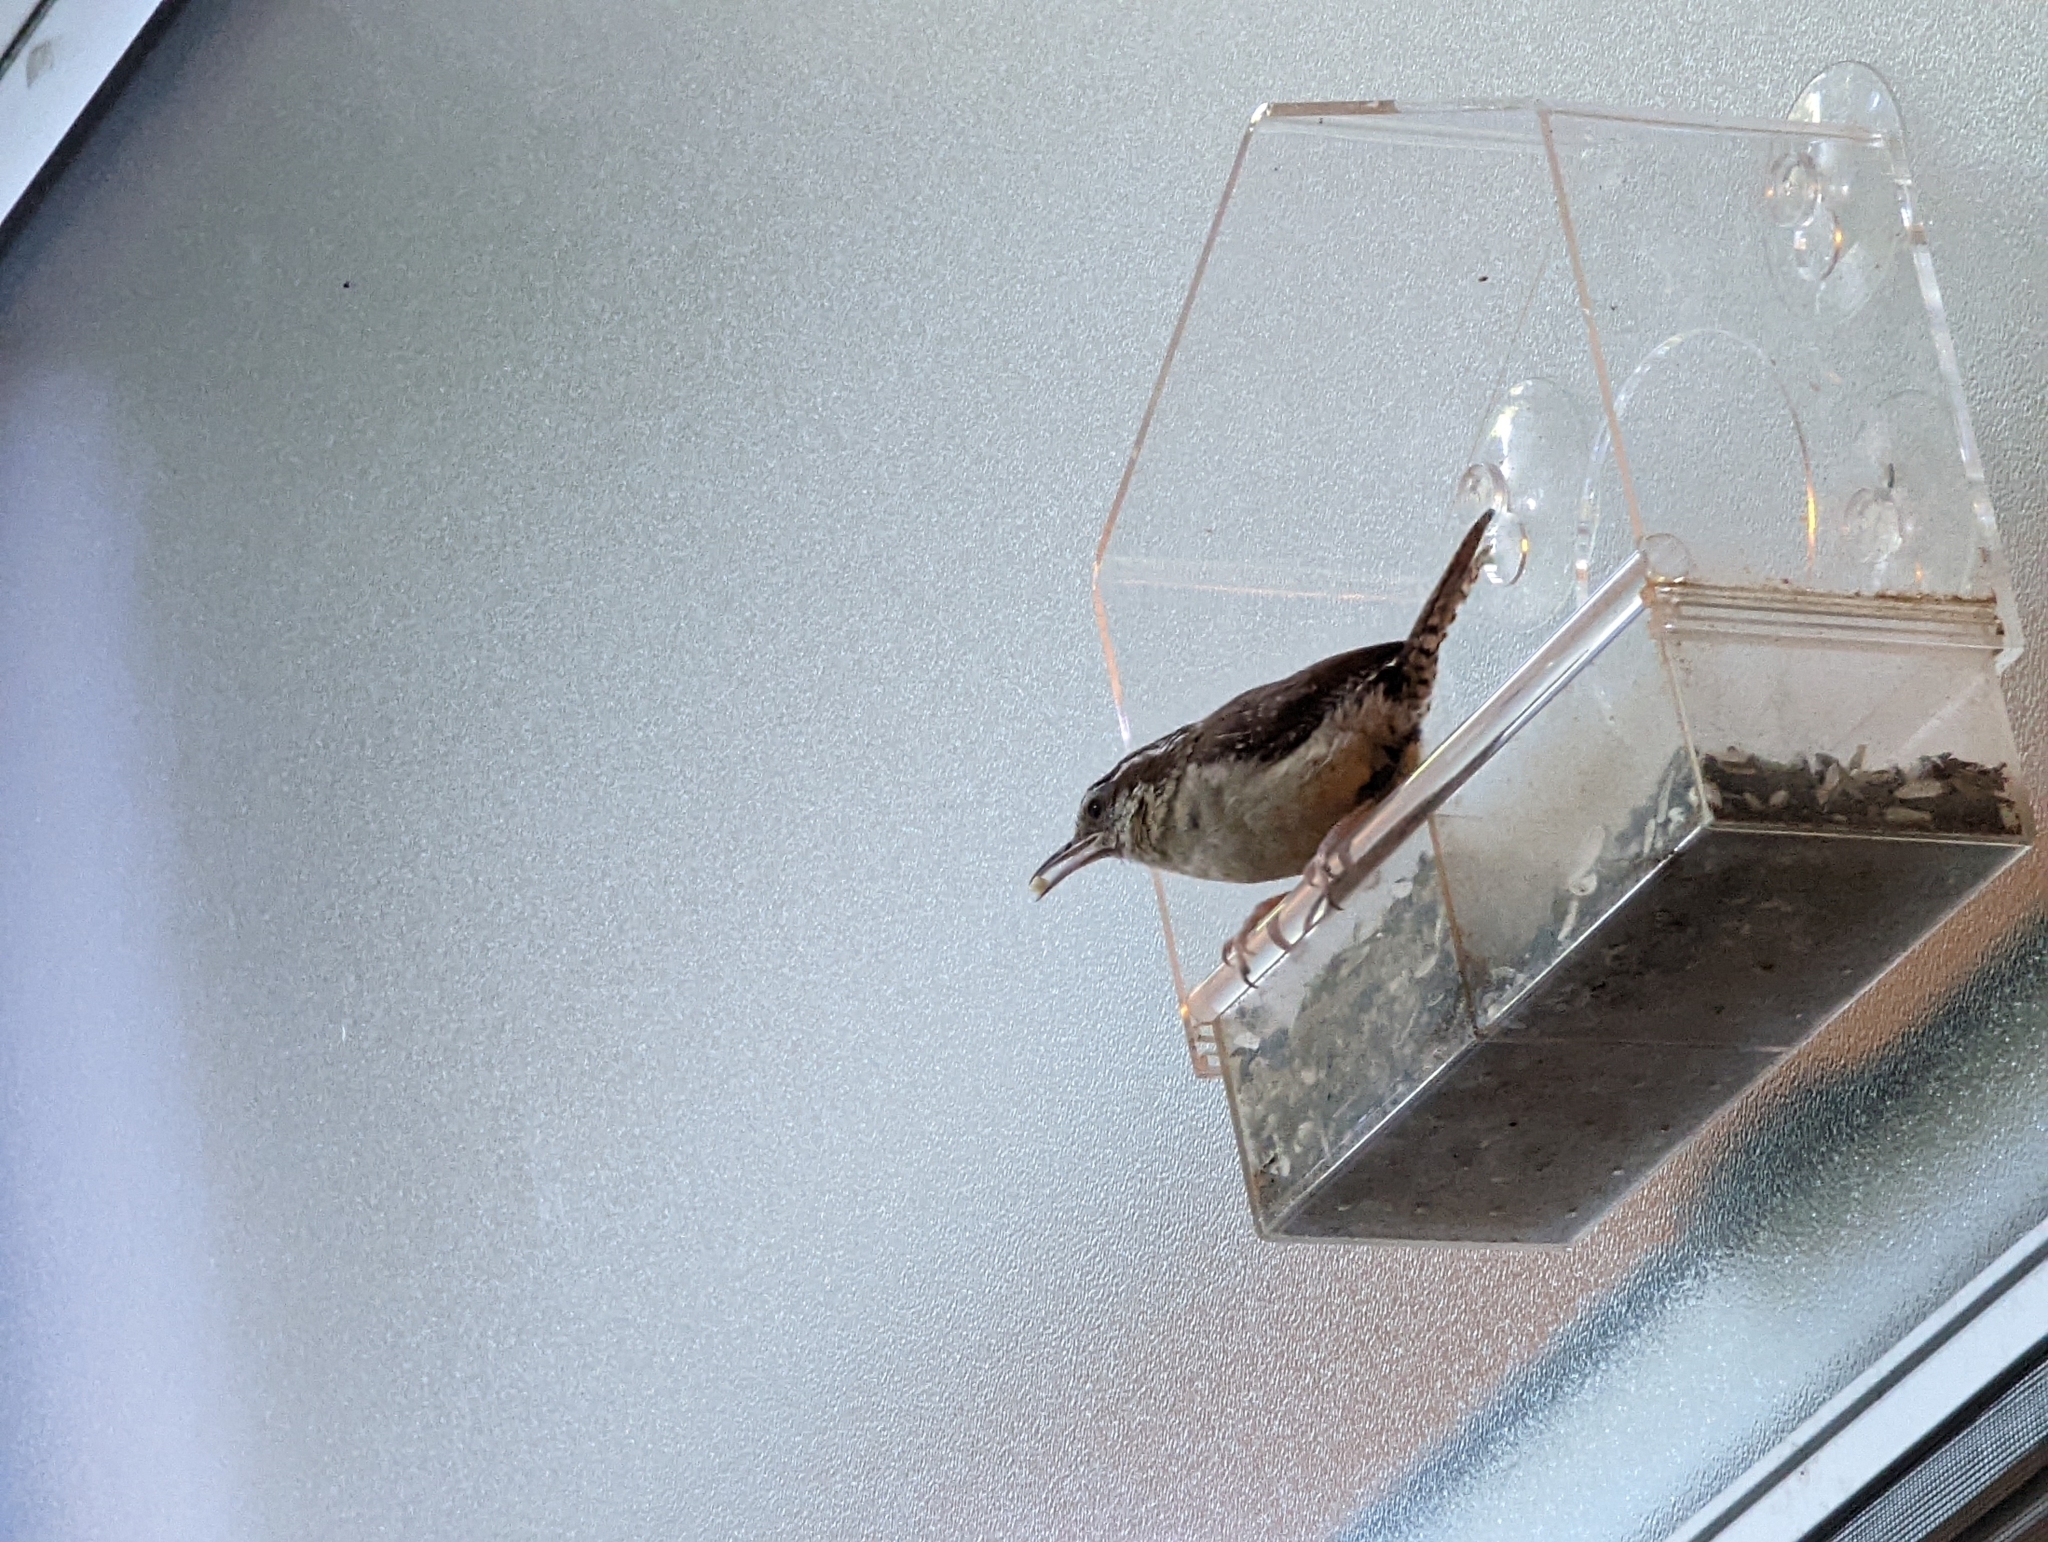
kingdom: Animalia
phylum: Chordata
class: Aves
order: Passeriformes
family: Troglodytidae
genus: Thryothorus
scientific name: Thryothorus ludovicianus
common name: Carolina wren
